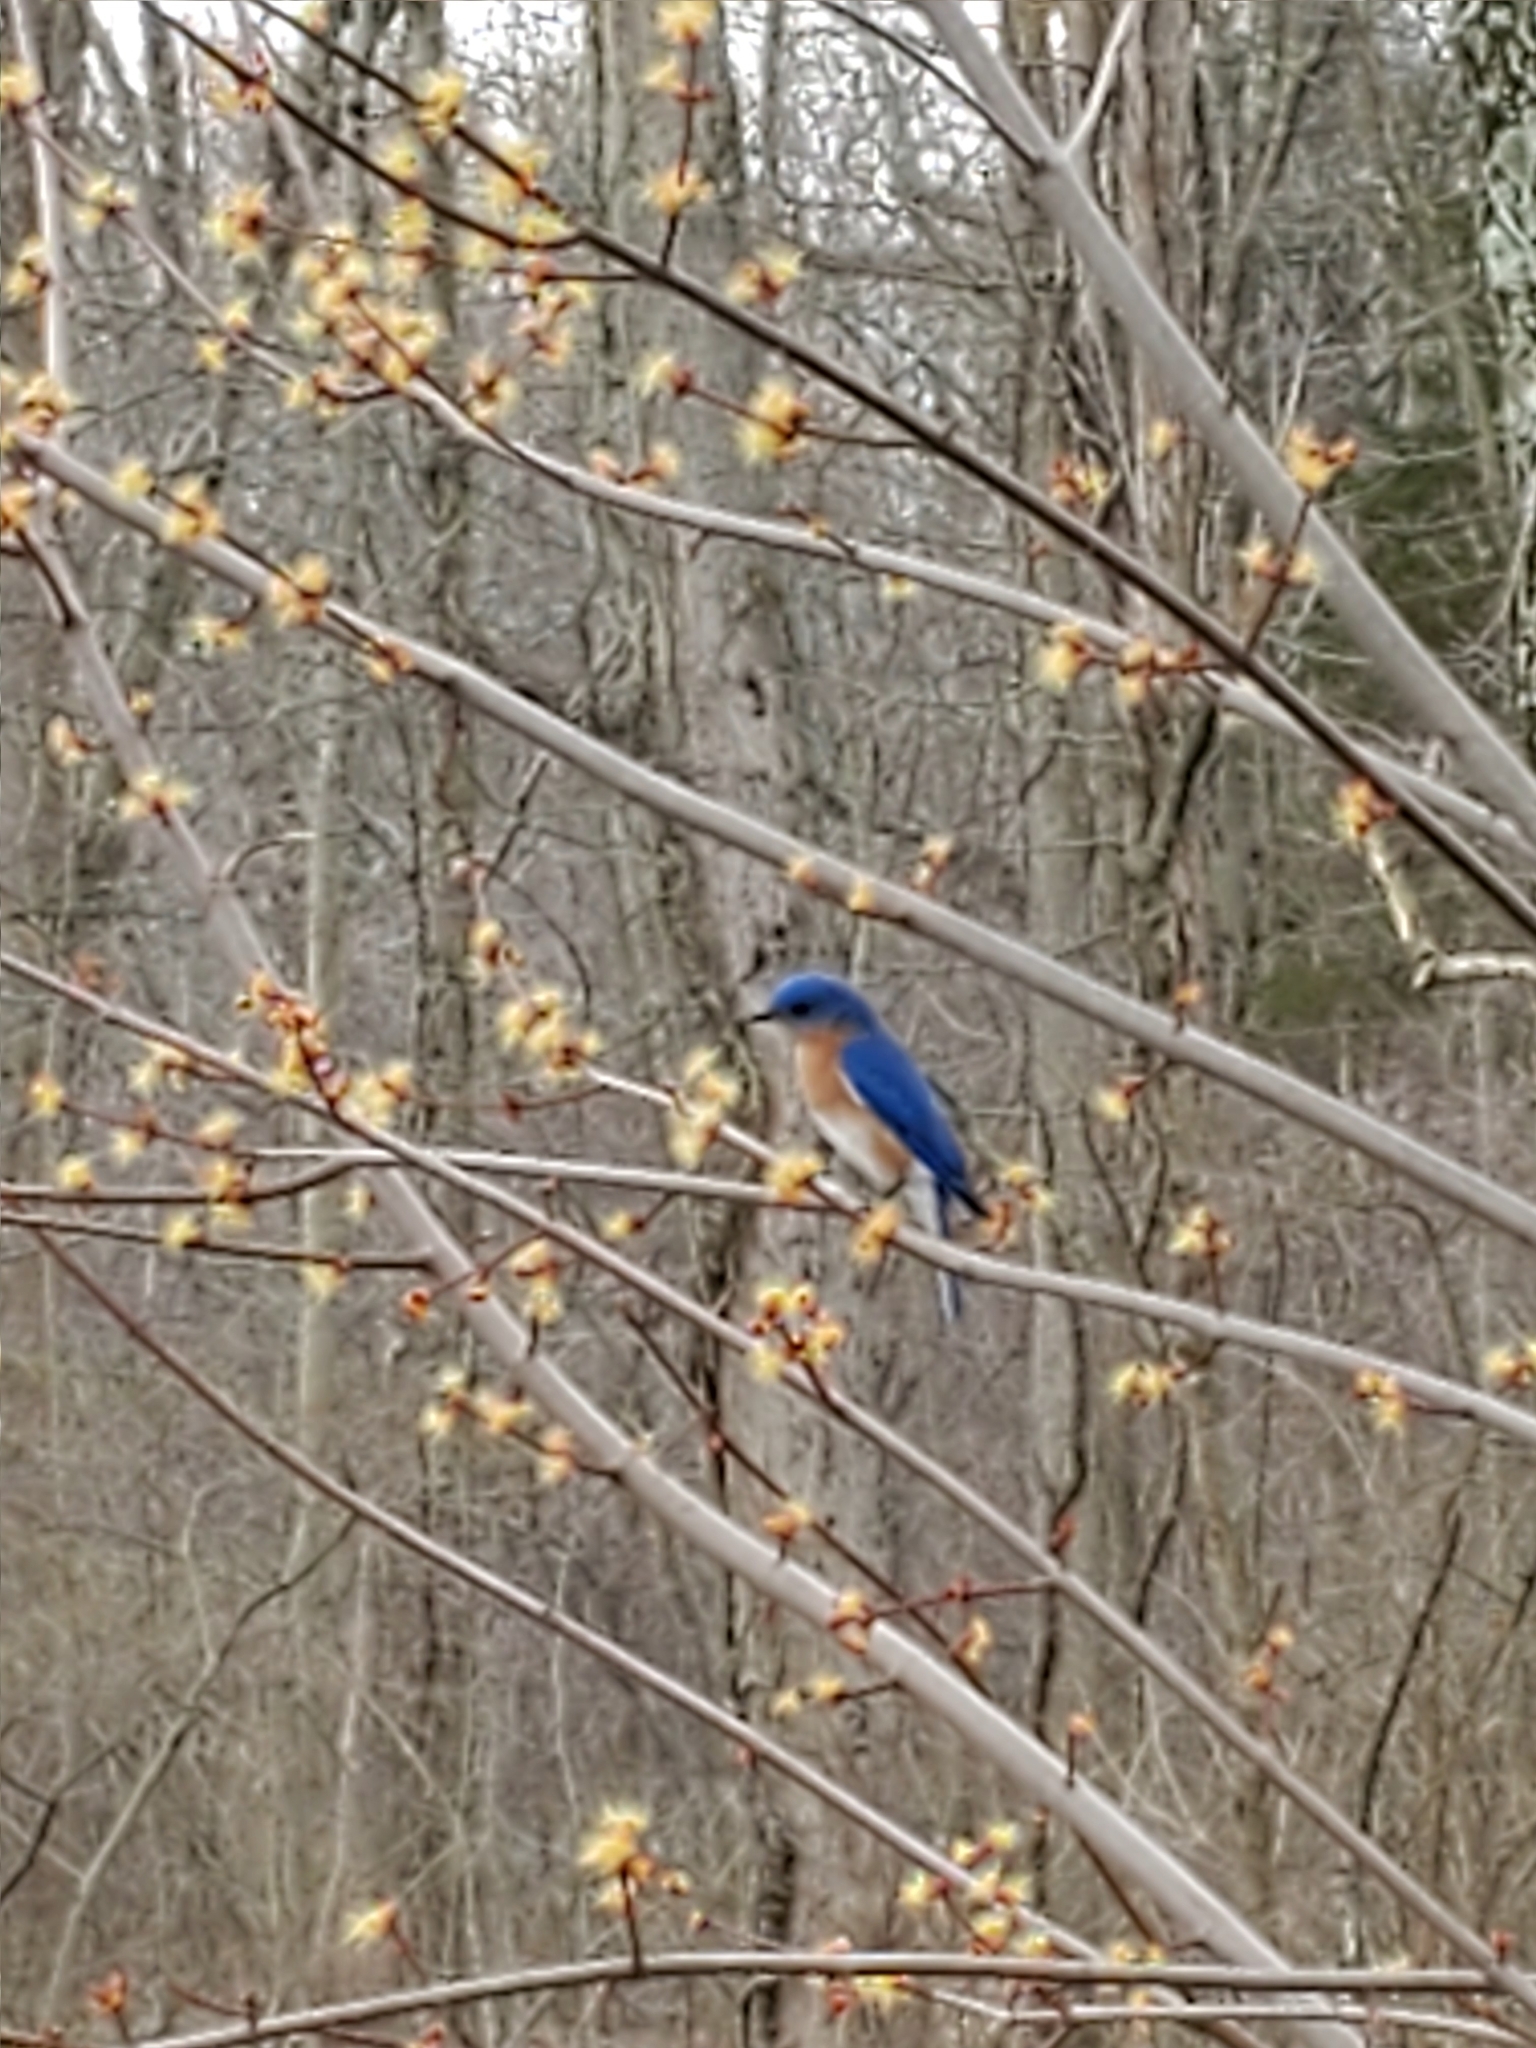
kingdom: Animalia
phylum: Chordata
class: Aves
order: Passeriformes
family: Turdidae
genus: Sialia
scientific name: Sialia sialis
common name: Eastern bluebird
